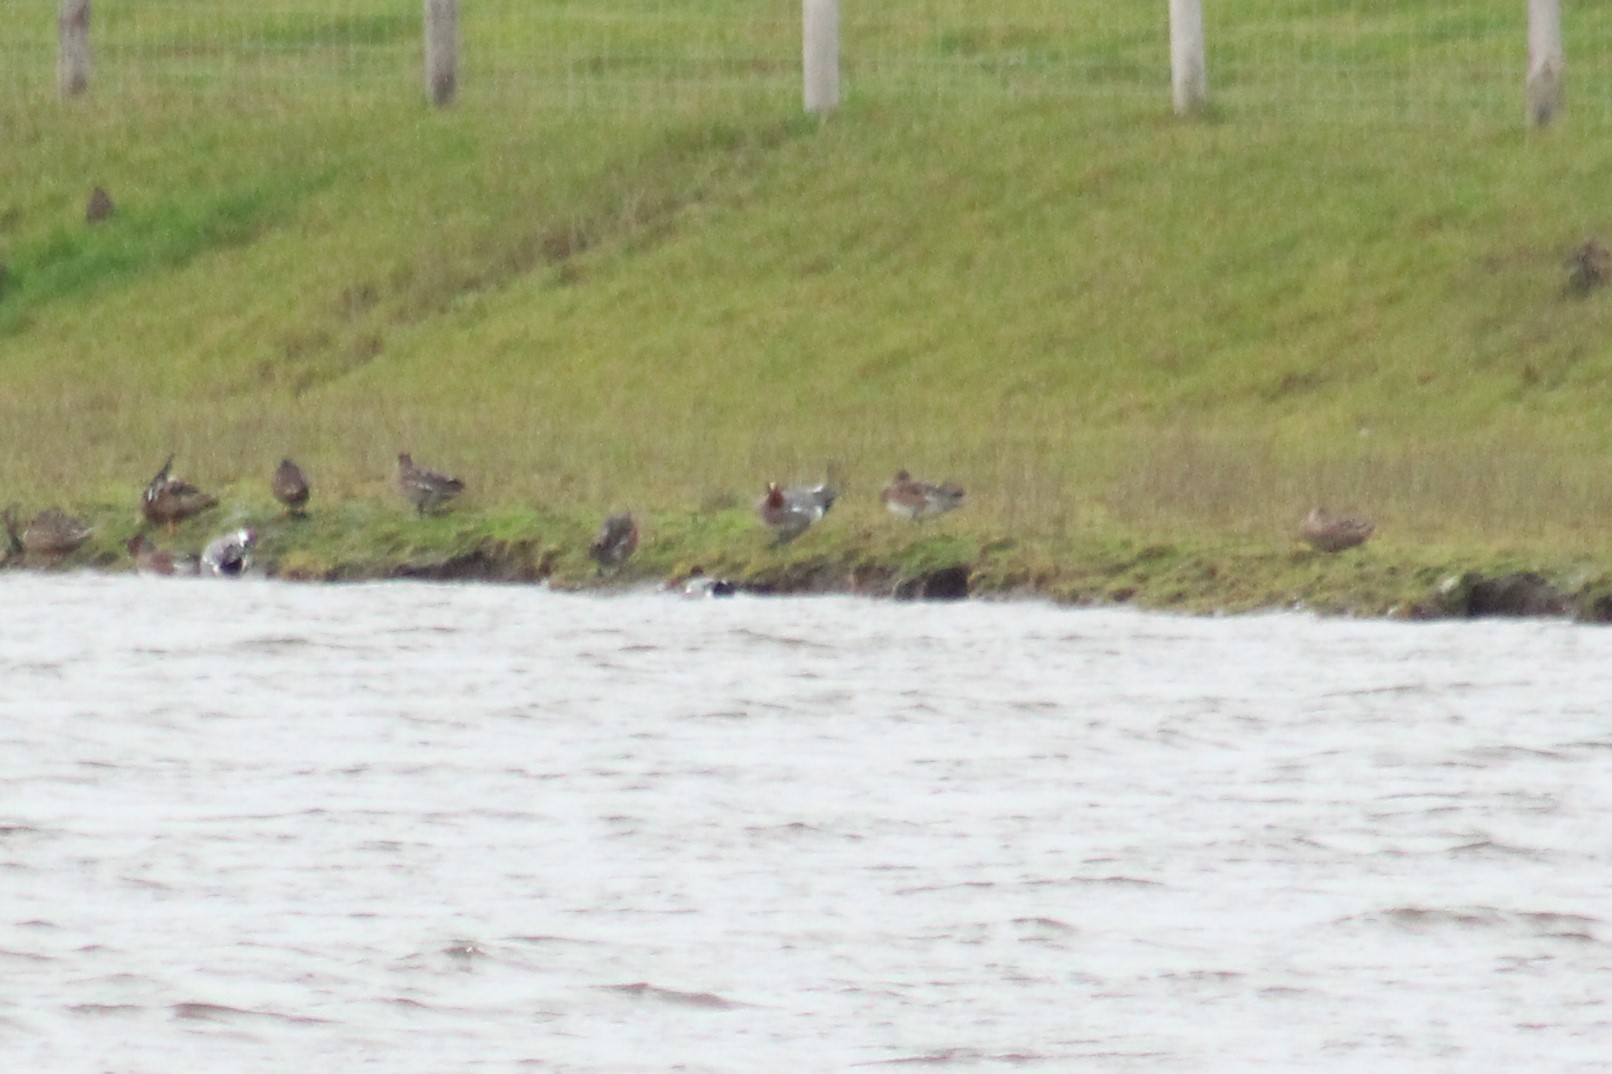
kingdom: Animalia
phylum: Chordata
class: Aves
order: Anseriformes
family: Anatidae
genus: Mareca
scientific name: Mareca penelope
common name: Eurasian wigeon
